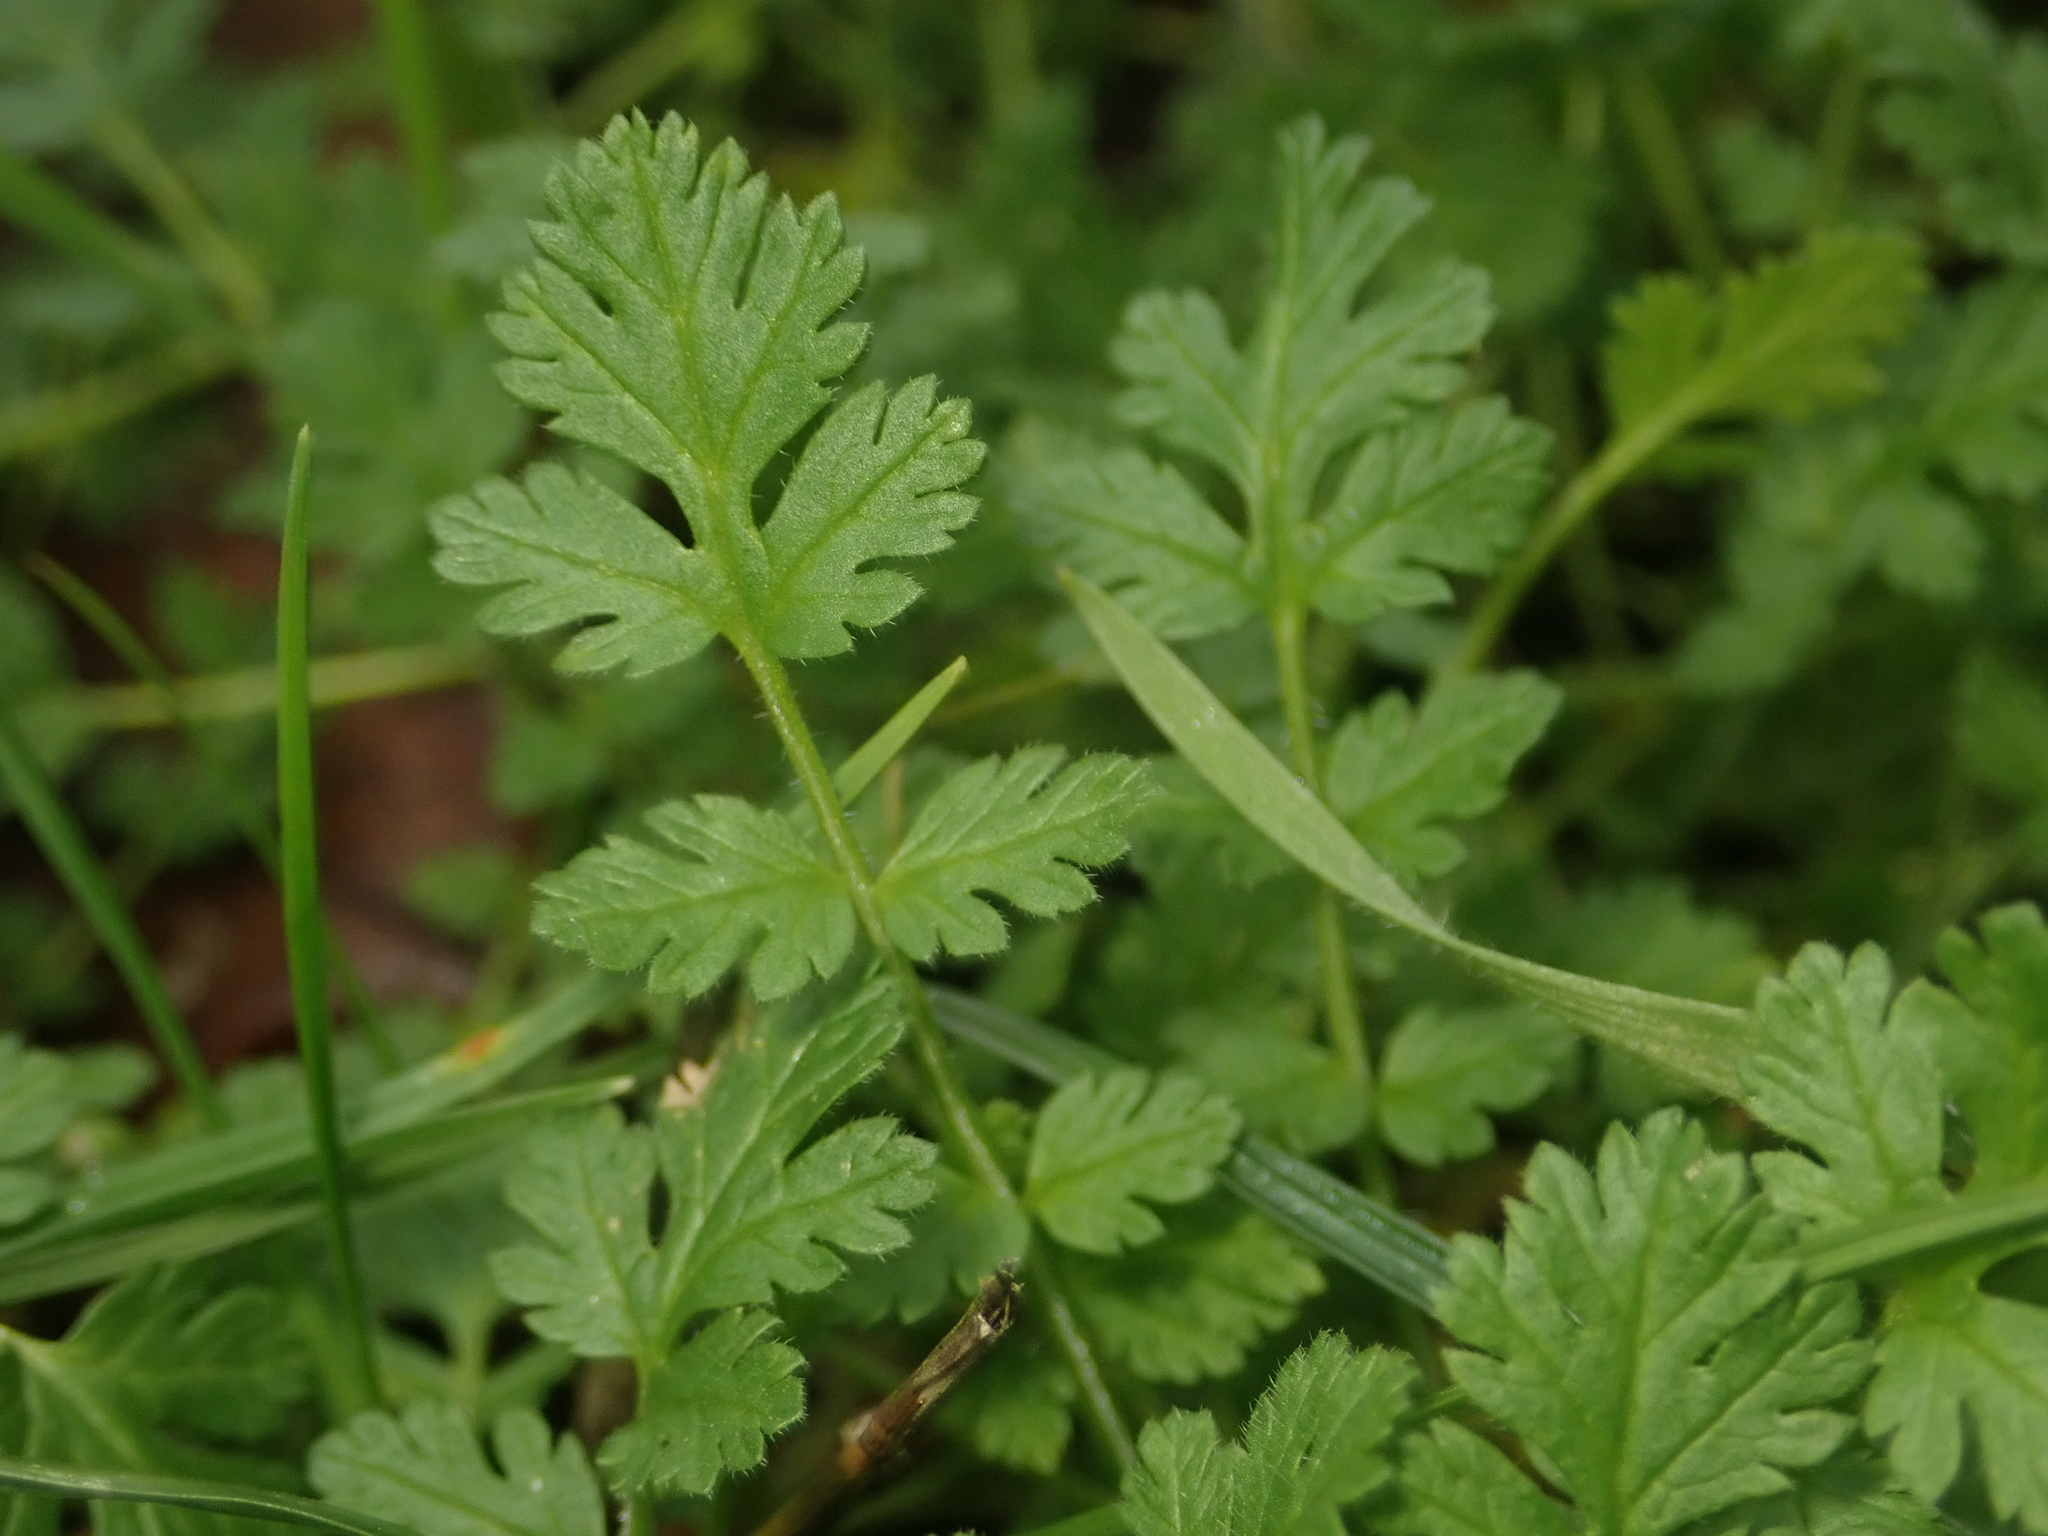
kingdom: Plantae
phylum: Tracheophyta
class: Magnoliopsida
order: Geraniales
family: Geraniaceae
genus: Erodium
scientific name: Erodium cicutarium
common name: Common stork's-bill
